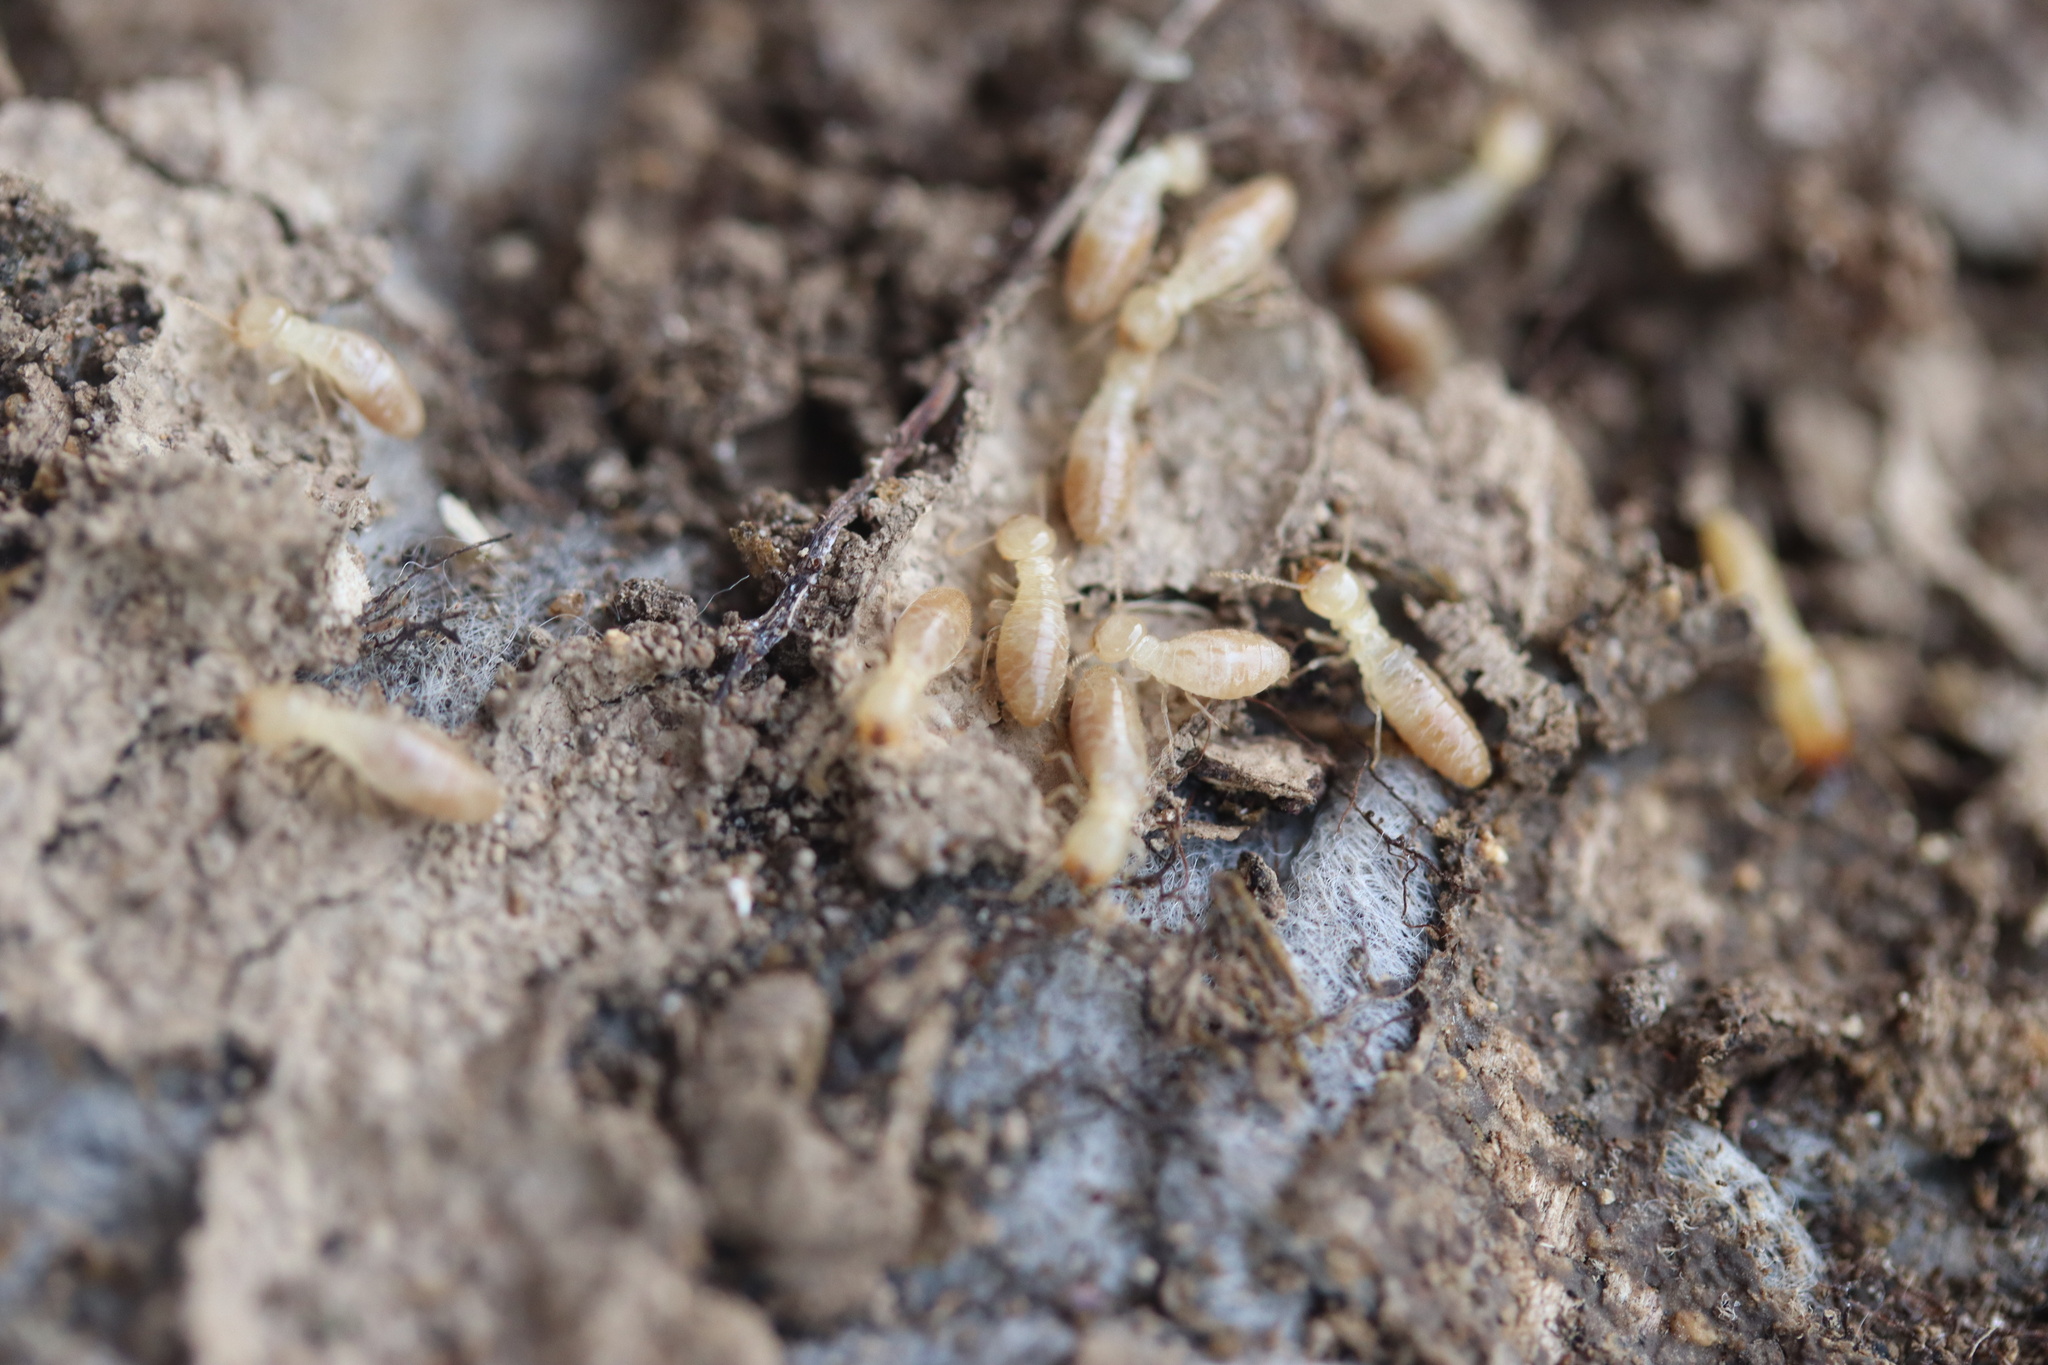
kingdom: Animalia
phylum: Arthropoda
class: Insecta
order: Blattodea
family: Rhinotermitidae
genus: Reticulitermes
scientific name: Reticulitermes
